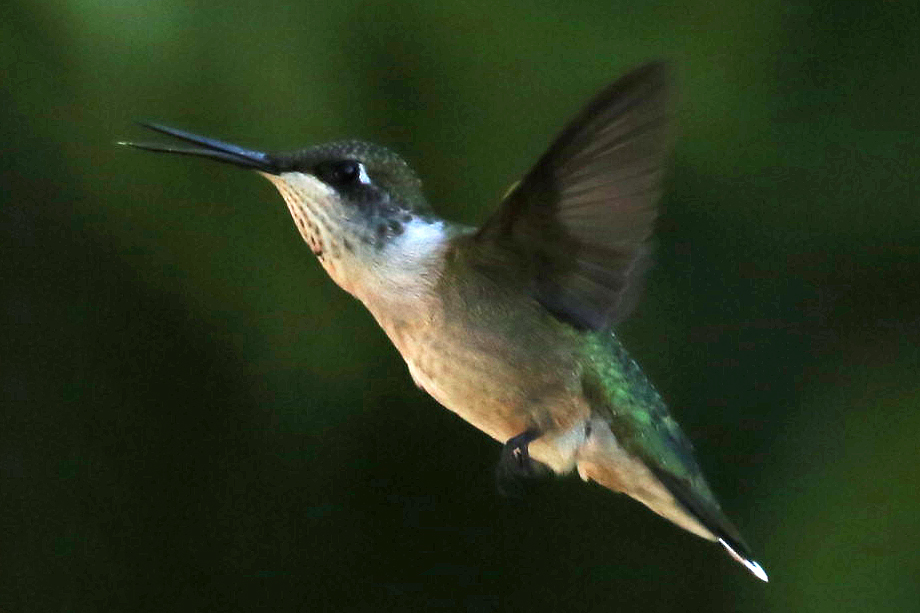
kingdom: Animalia
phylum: Chordata
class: Aves
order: Apodiformes
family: Trochilidae
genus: Archilochus
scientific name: Archilochus colubris
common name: Ruby-throated hummingbird
